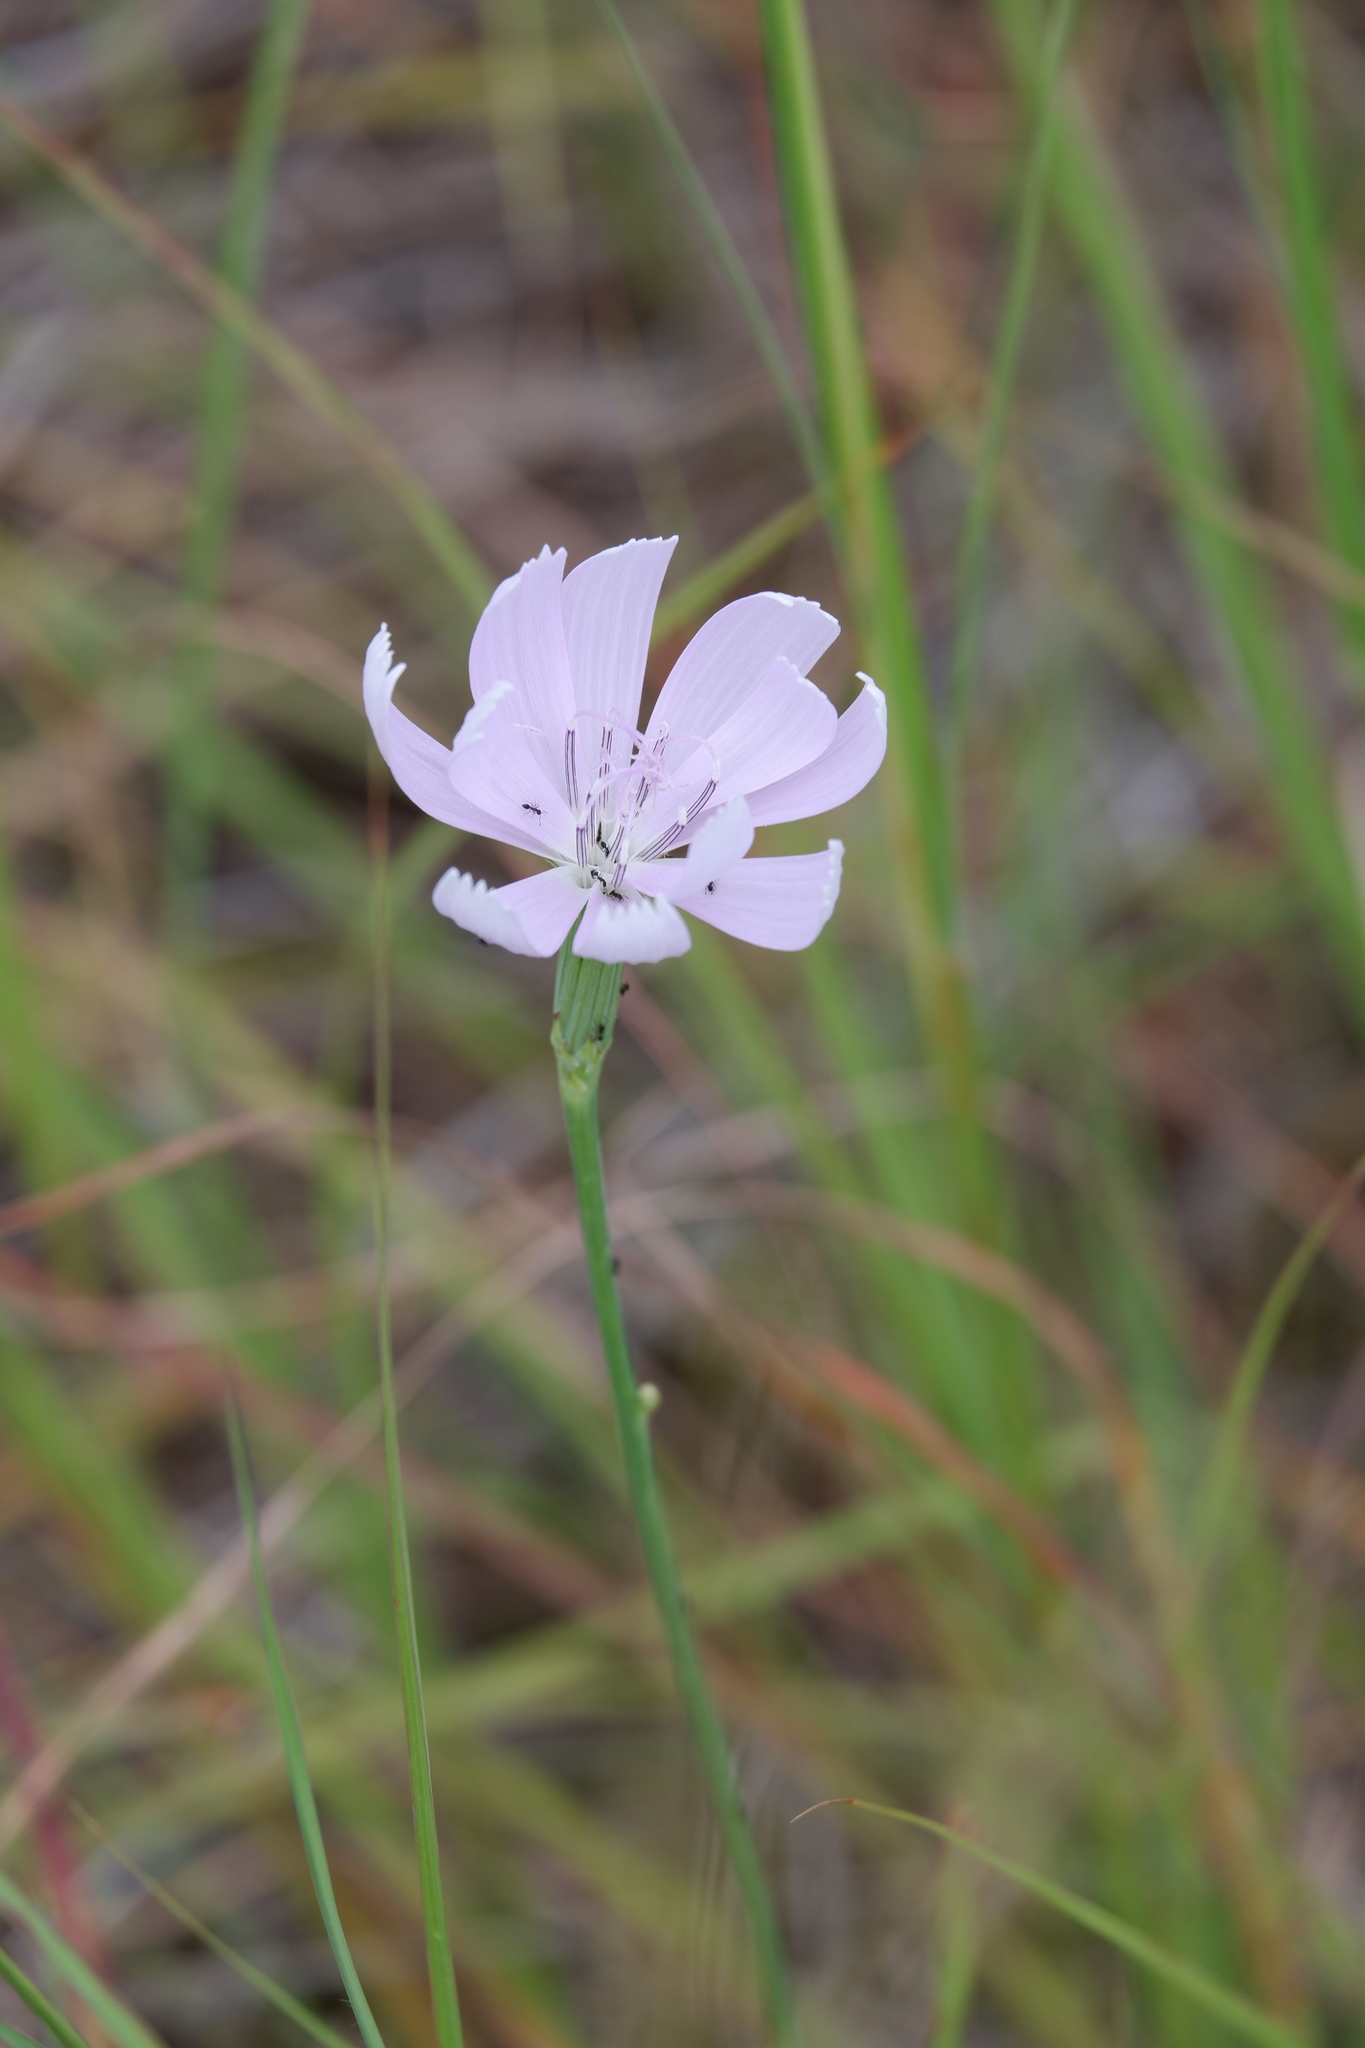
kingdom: Plantae
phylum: Tracheophyta
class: Magnoliopsida
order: Asterales
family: Asteraceae
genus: Lygodesmia
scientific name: Lygodesmia texana
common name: Texas skeleton-plant
